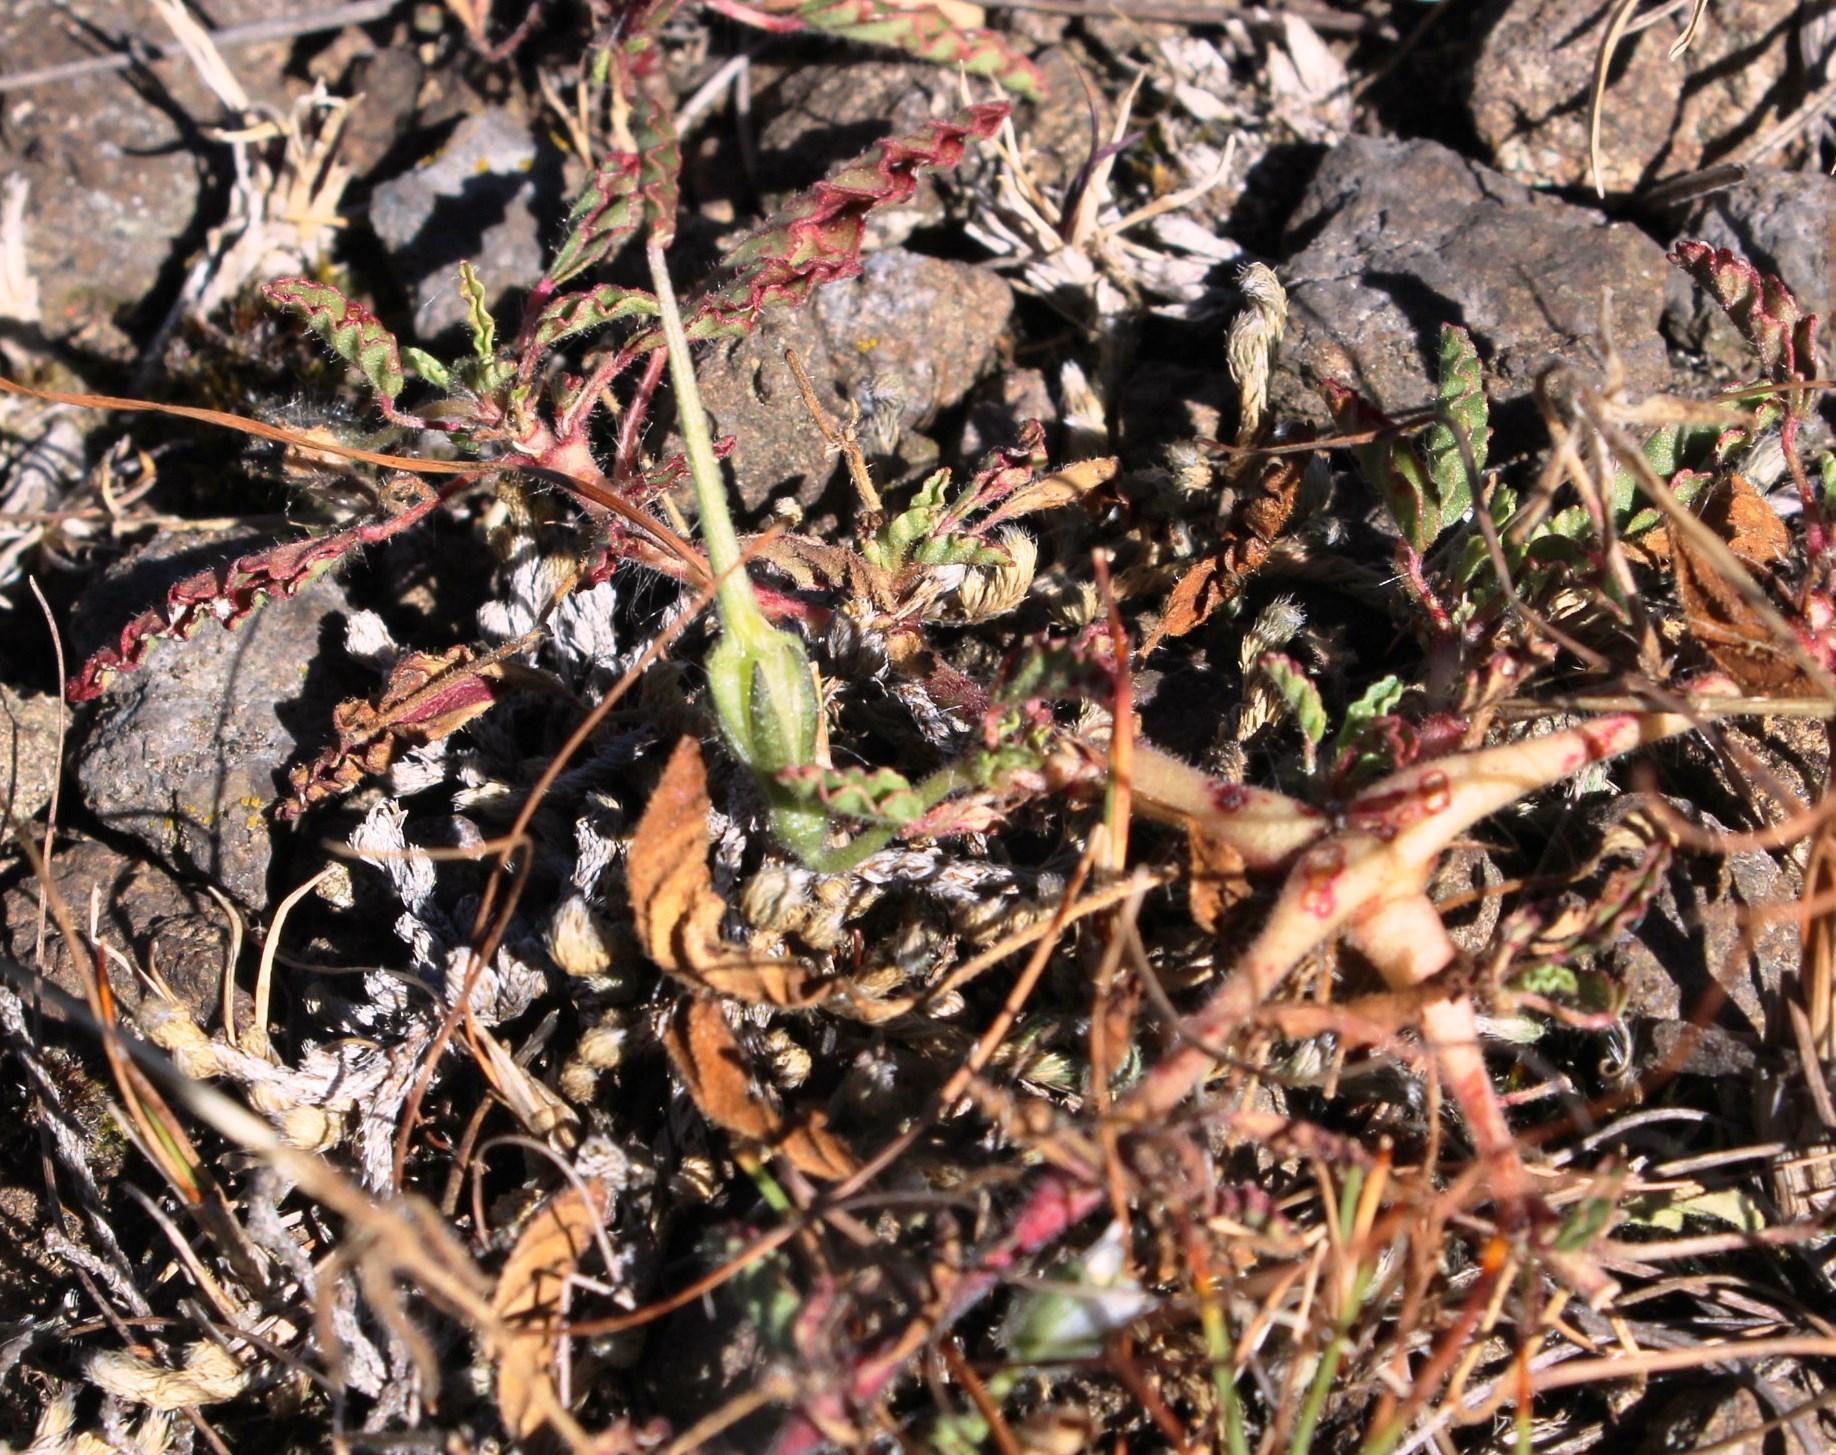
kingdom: Plantae
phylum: Tracheophyta
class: Magnoliopsida
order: Geraniales
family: Geraniaceae
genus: Monsonia
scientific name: Monsonia brevirostrata
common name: Short-fruited dysentery-herb
